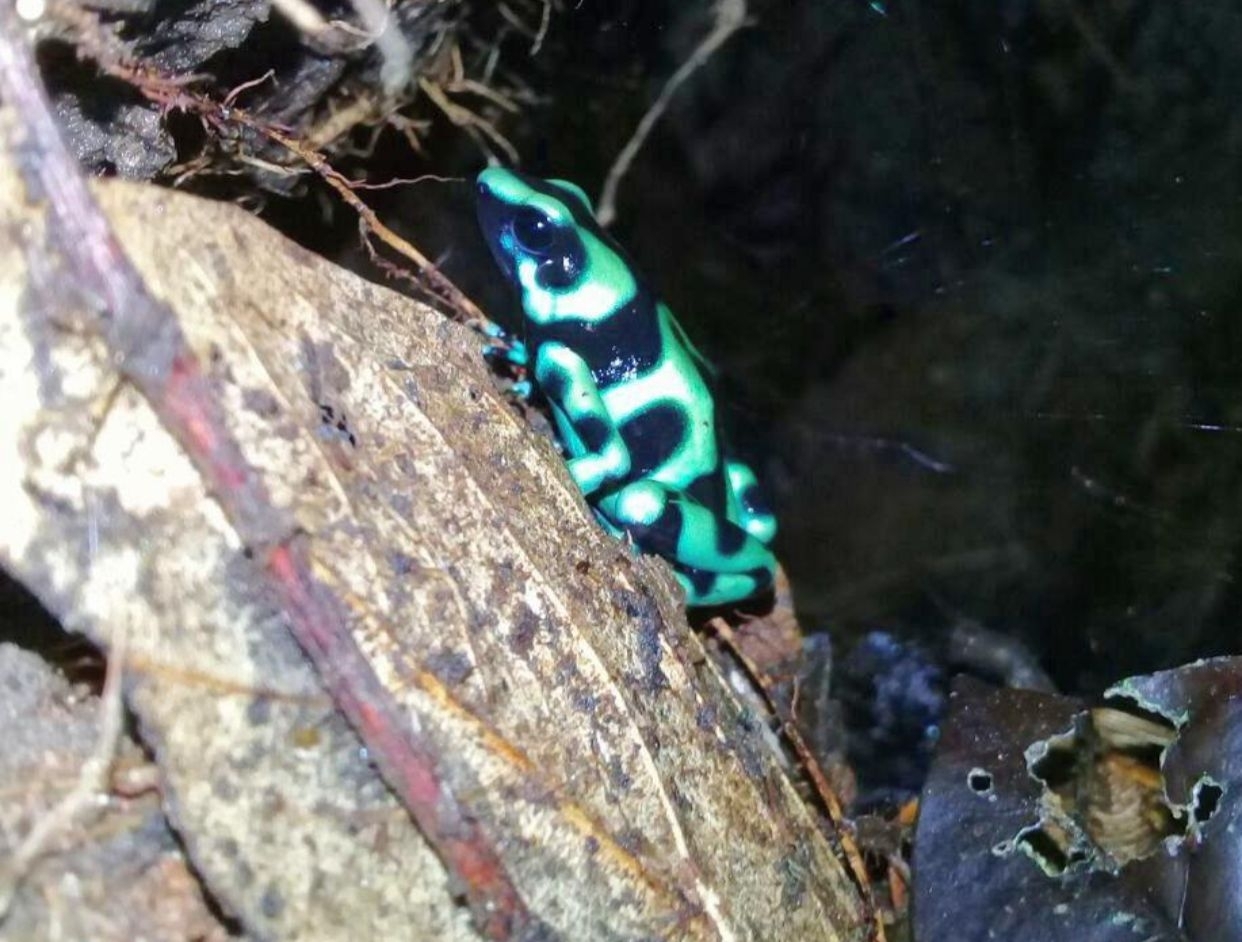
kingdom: Animalia
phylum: Chordata
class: Amphibia
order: Anura
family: Dendrobatidae
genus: Dendrobates
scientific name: Dendrobates auratus
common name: Green and black poison dart frog
